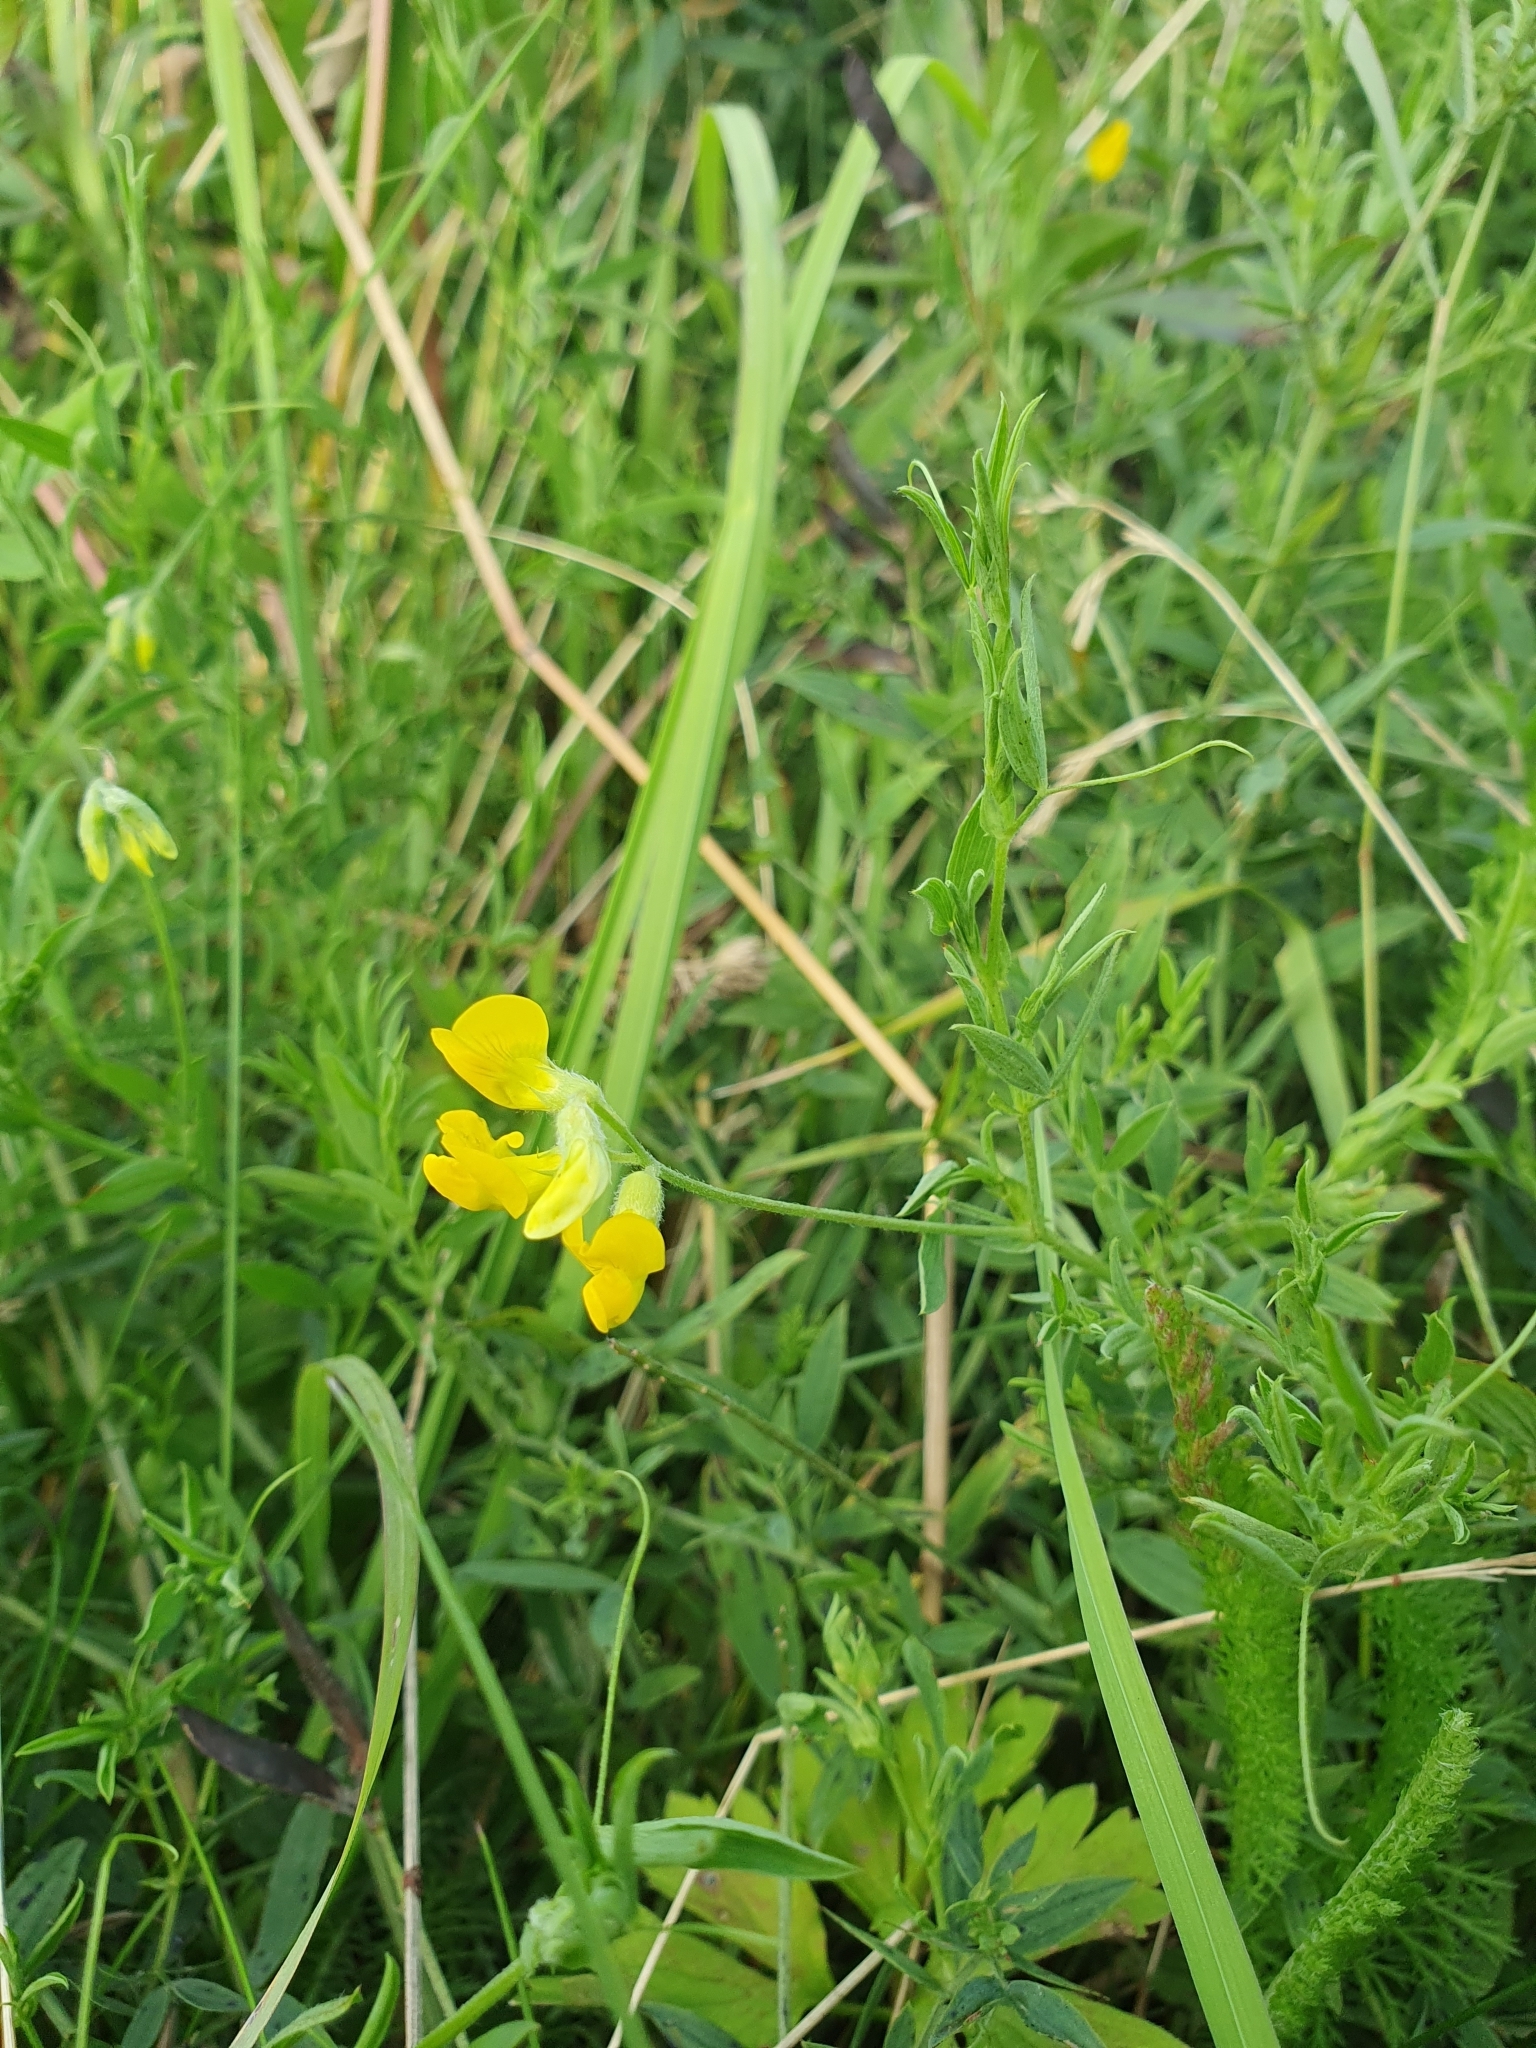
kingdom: Plantae
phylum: Tracheophyta
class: Magnoliopsida
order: Fabales
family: Fabaceae
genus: Lathyrus
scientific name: Lathyrus pratensis
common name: Meadow vetchling
